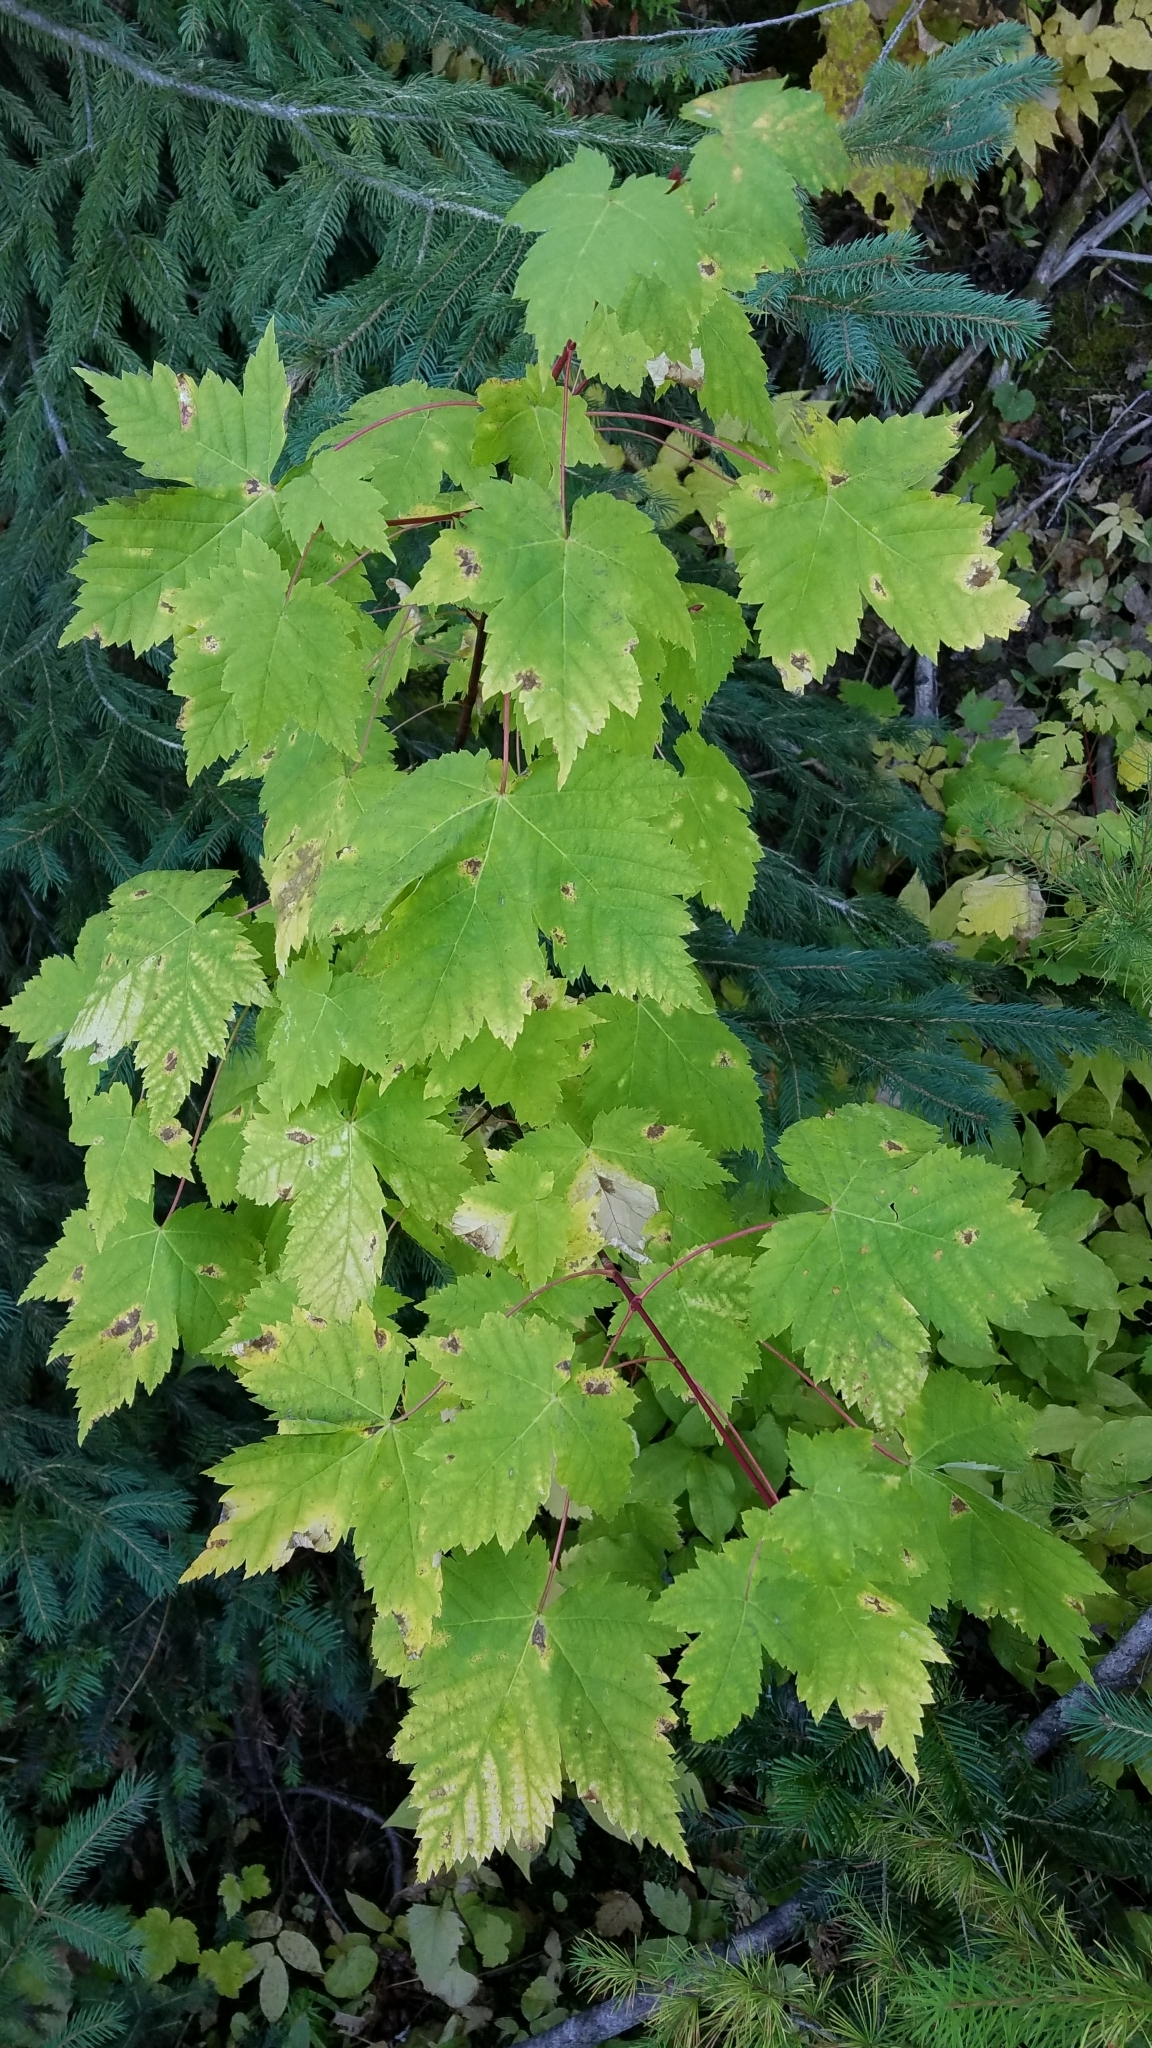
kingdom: Plantae
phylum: Tracheophyta
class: Magnoliopsida
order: Sapindales
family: Sapindaceae
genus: Acer
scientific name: Acer glabrum
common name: Rocky mountain maple
